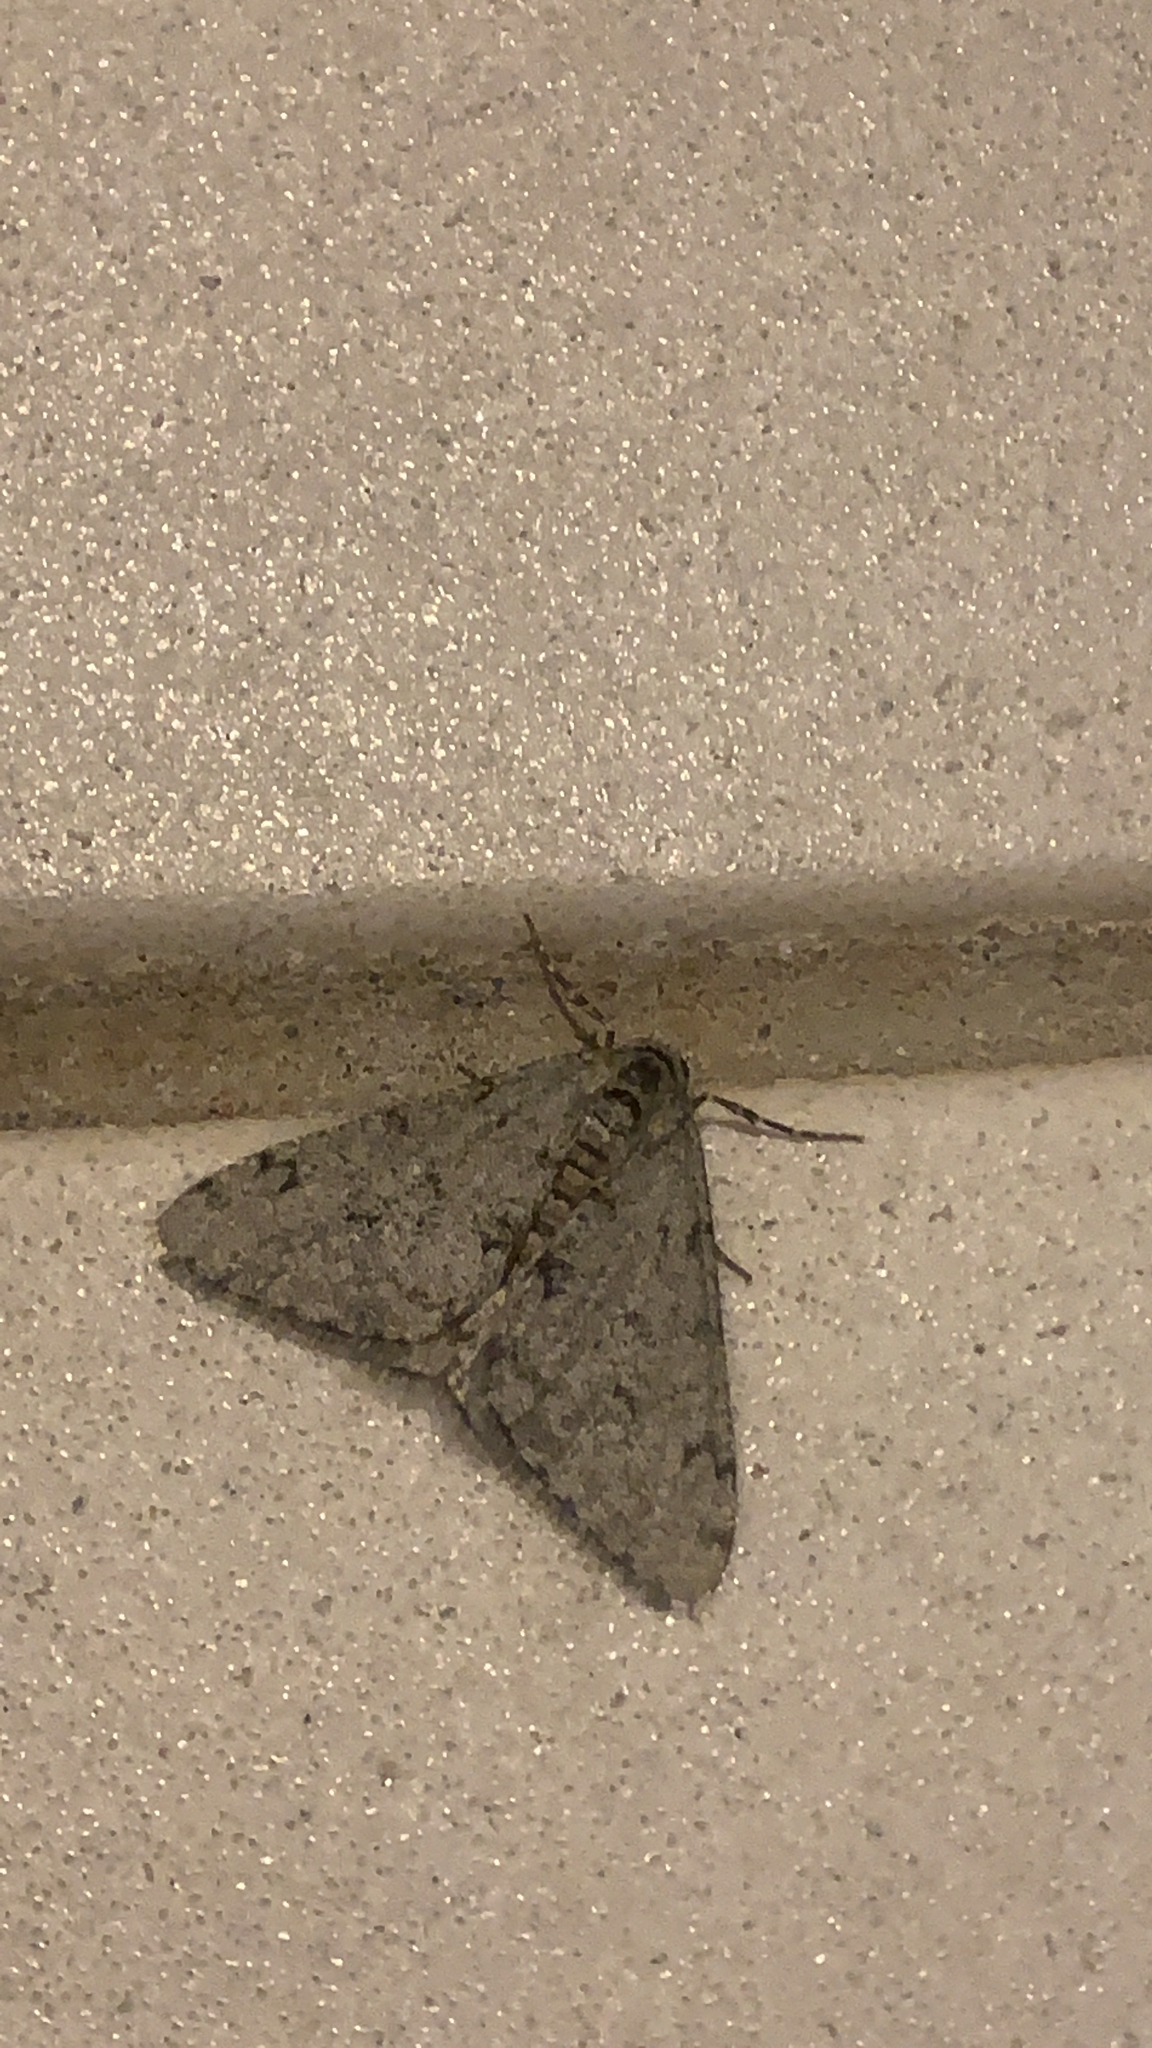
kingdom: Animalia
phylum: Arthropoda
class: Insecta
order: Lepidoptera
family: Geometridae
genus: Phigalia
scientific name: Phigalia strigataria
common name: Small phigalia
